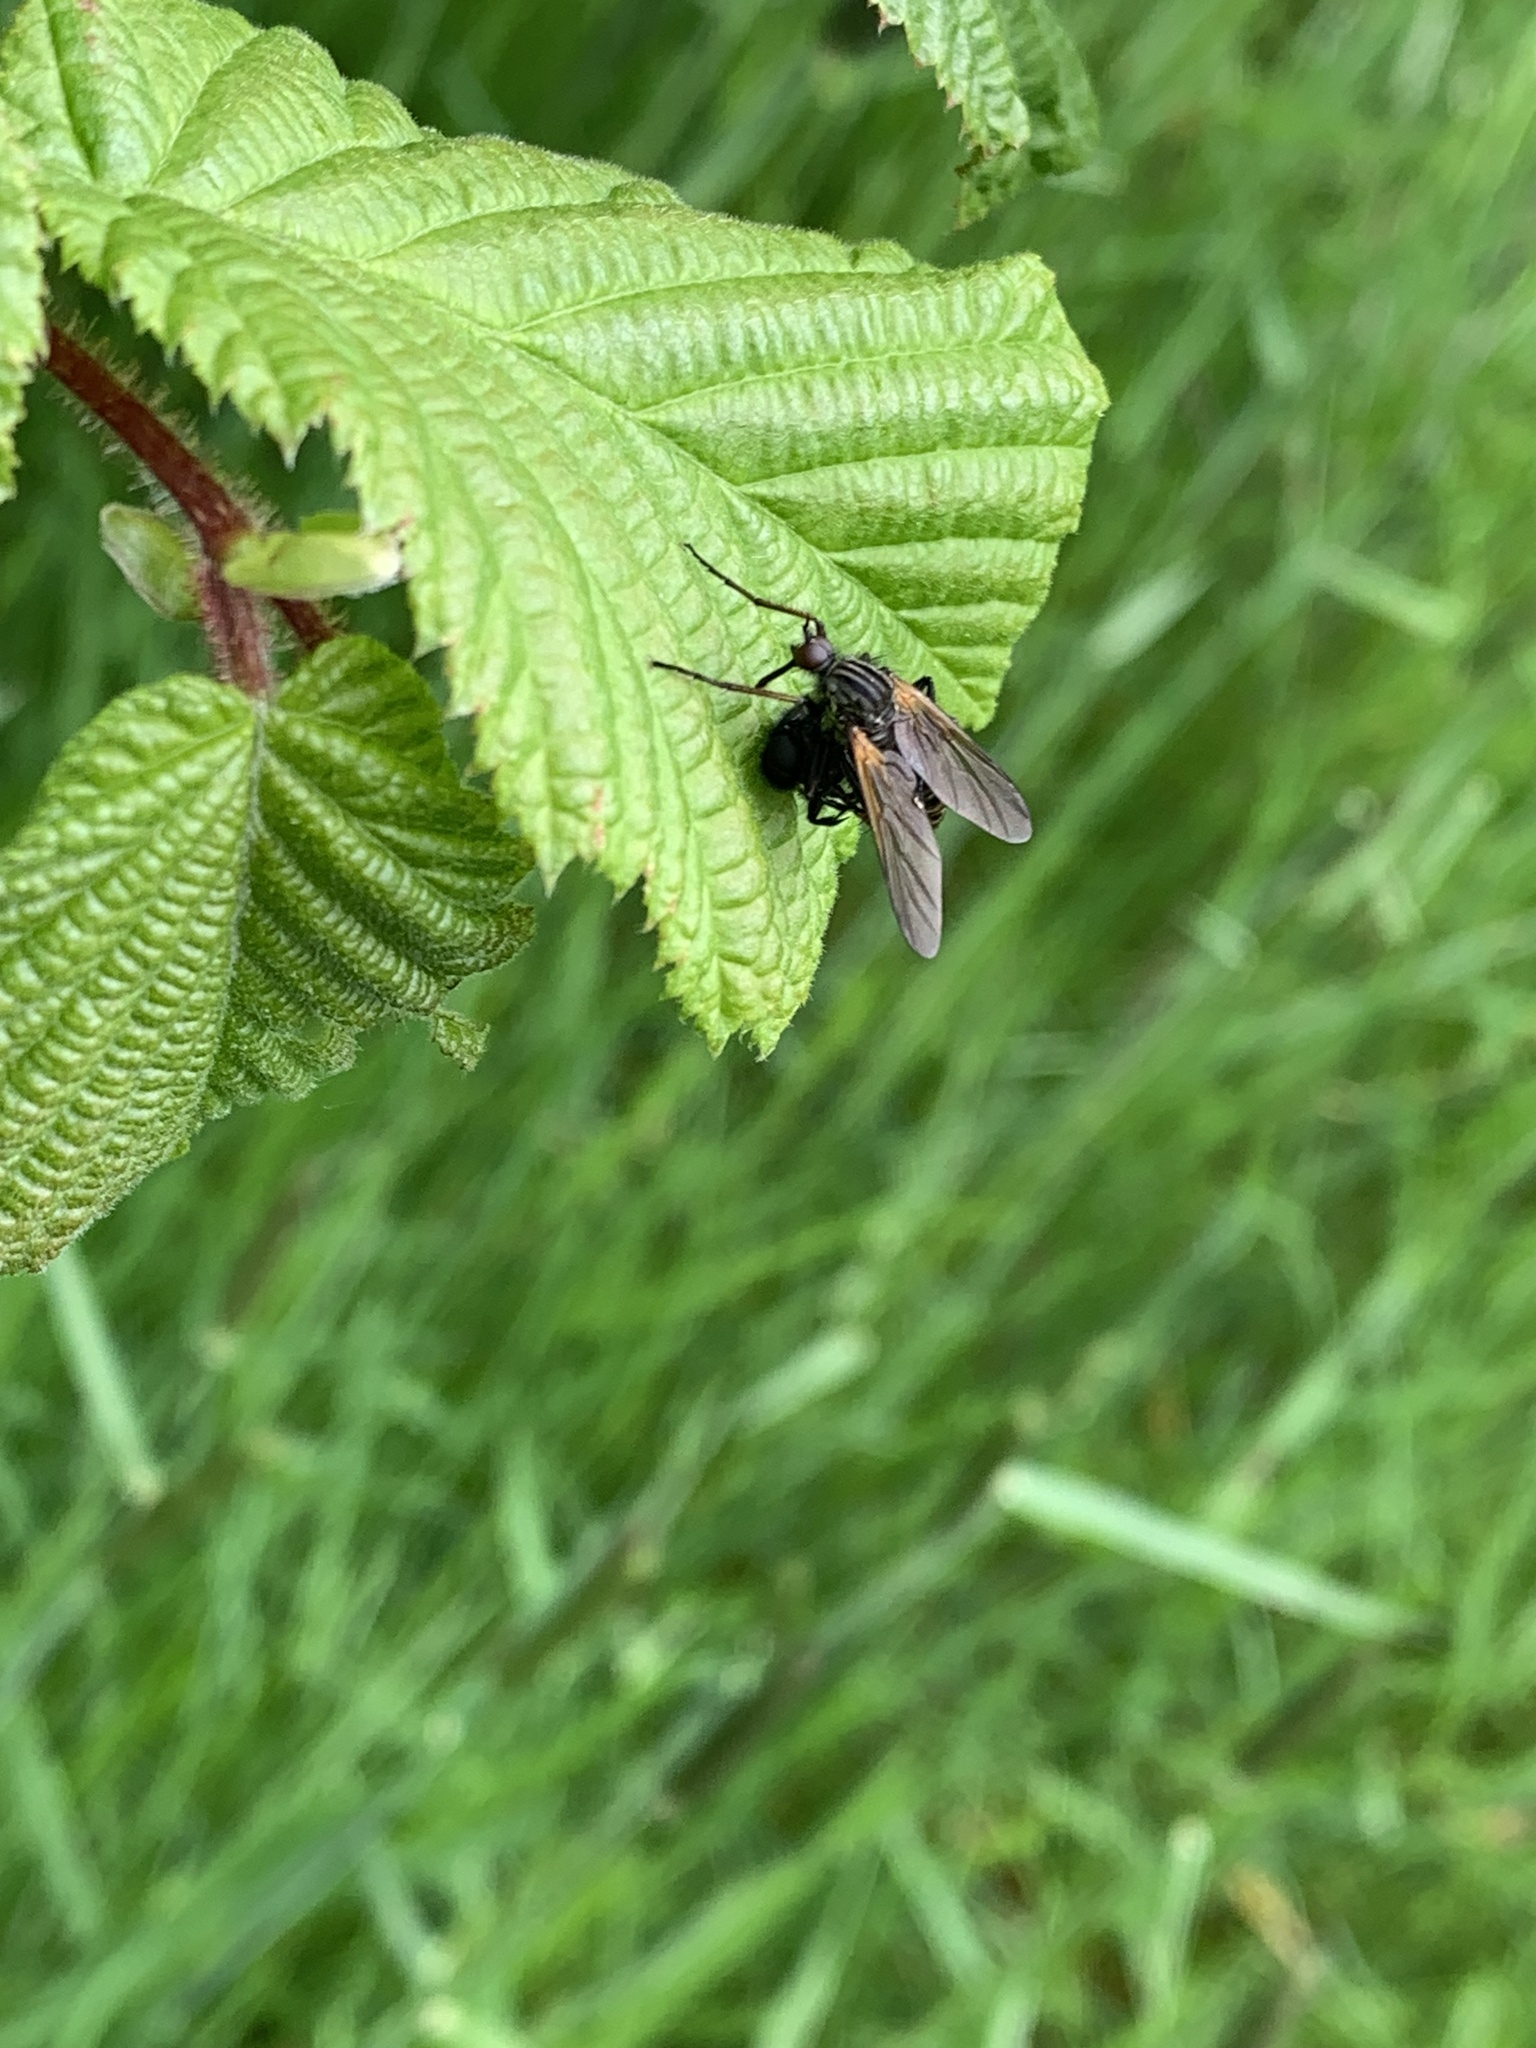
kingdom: Animalia
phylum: Arthropoda
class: Insecta
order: Diptera
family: Empididae
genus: Empis
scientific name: Empis tessellata
